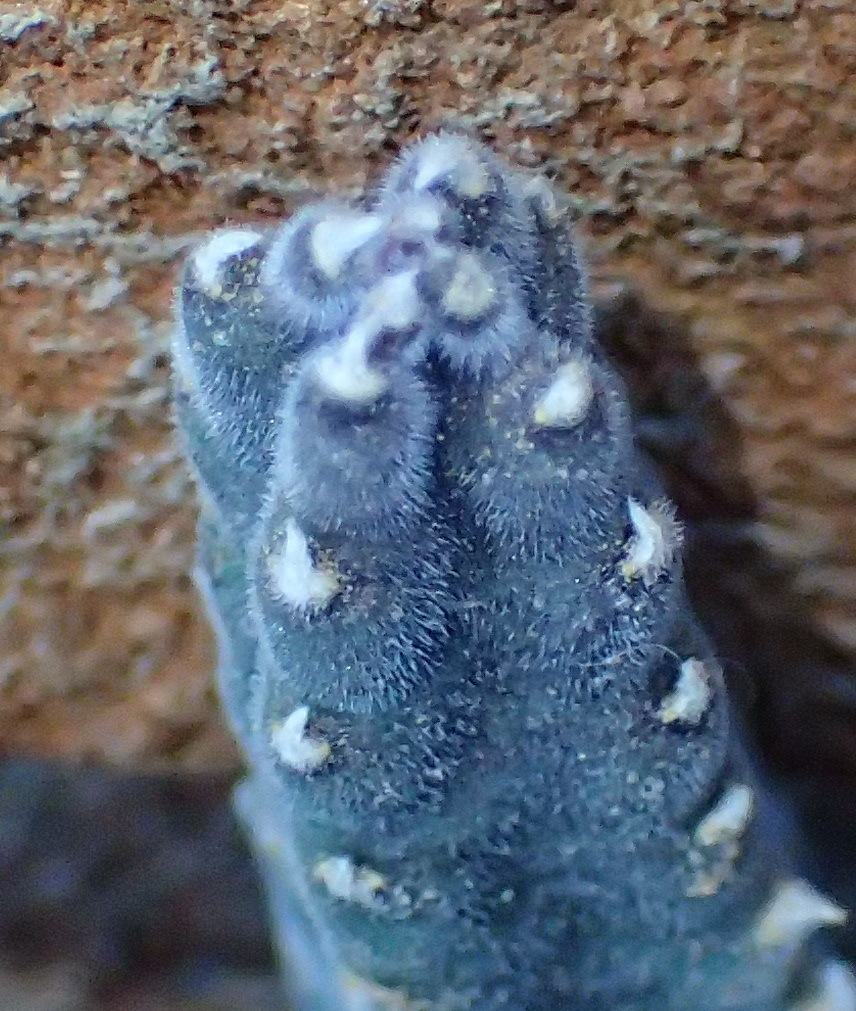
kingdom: Plantae
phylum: Tracheophyta
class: Magnoliopsida
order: Gentianales
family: Apocynaceae
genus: Ceropegia
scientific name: Ceropegia pulvinata
